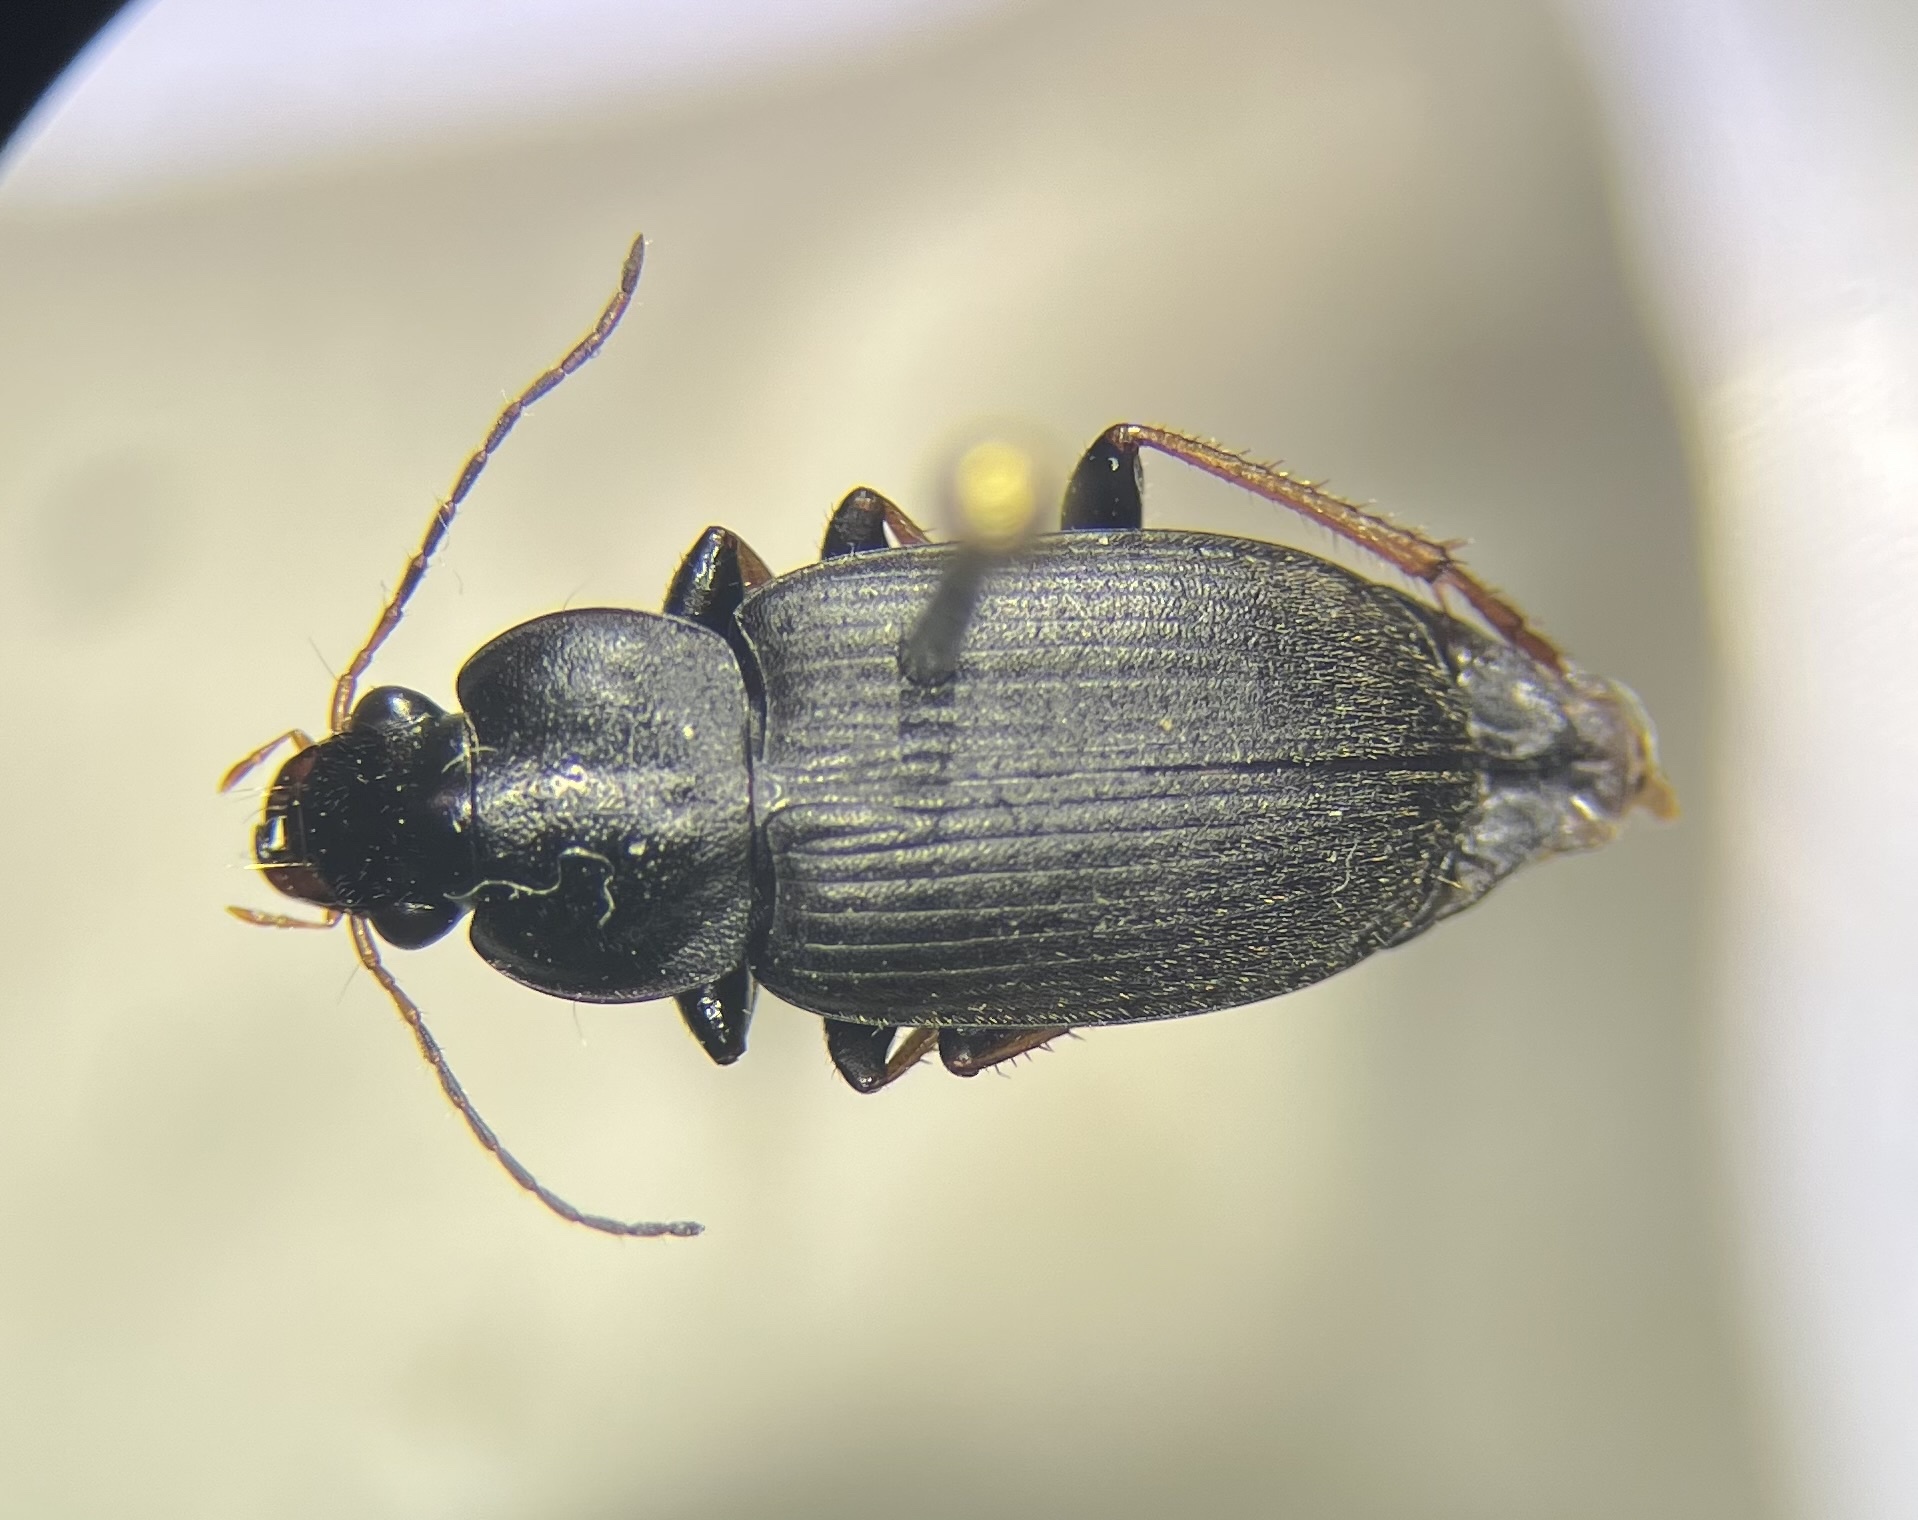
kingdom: Animalia
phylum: Arthropoda
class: Insecta
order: Coleoptera
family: Carabidae
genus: Amphasia
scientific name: Amphasia sericea
